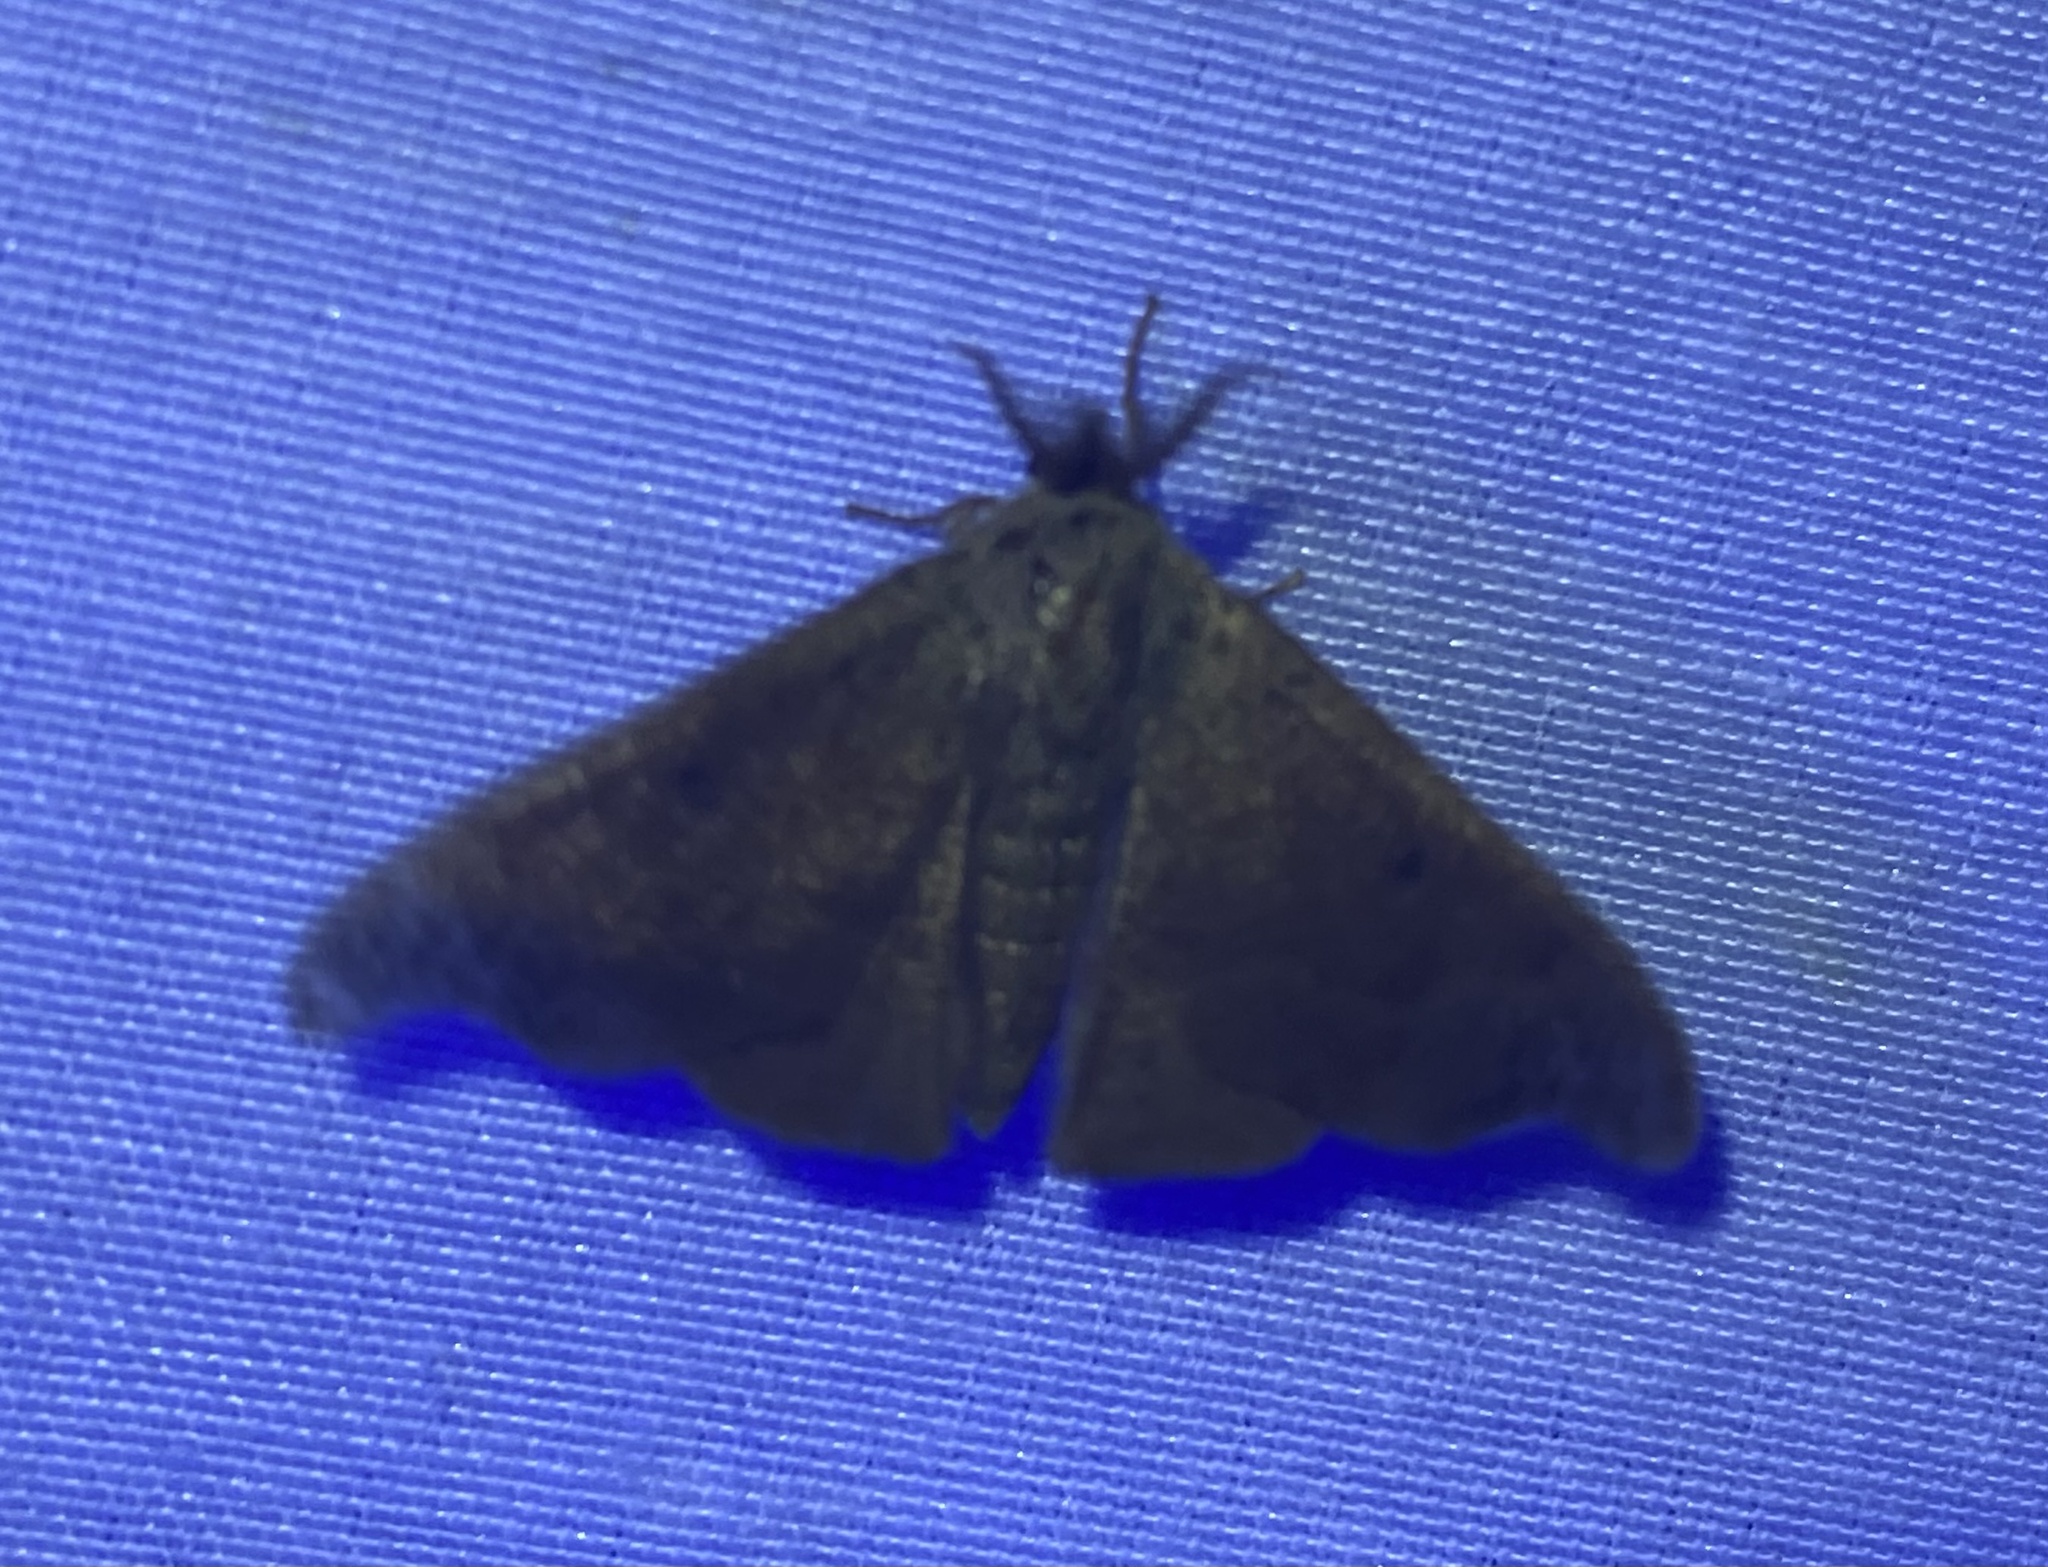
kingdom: Animalia
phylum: Arthropoda
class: Insecta
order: Lepidoptera
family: Mimallonidae
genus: Lacosoma
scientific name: Lacosoma chiridota
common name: Scalloped sack-bearer moth
